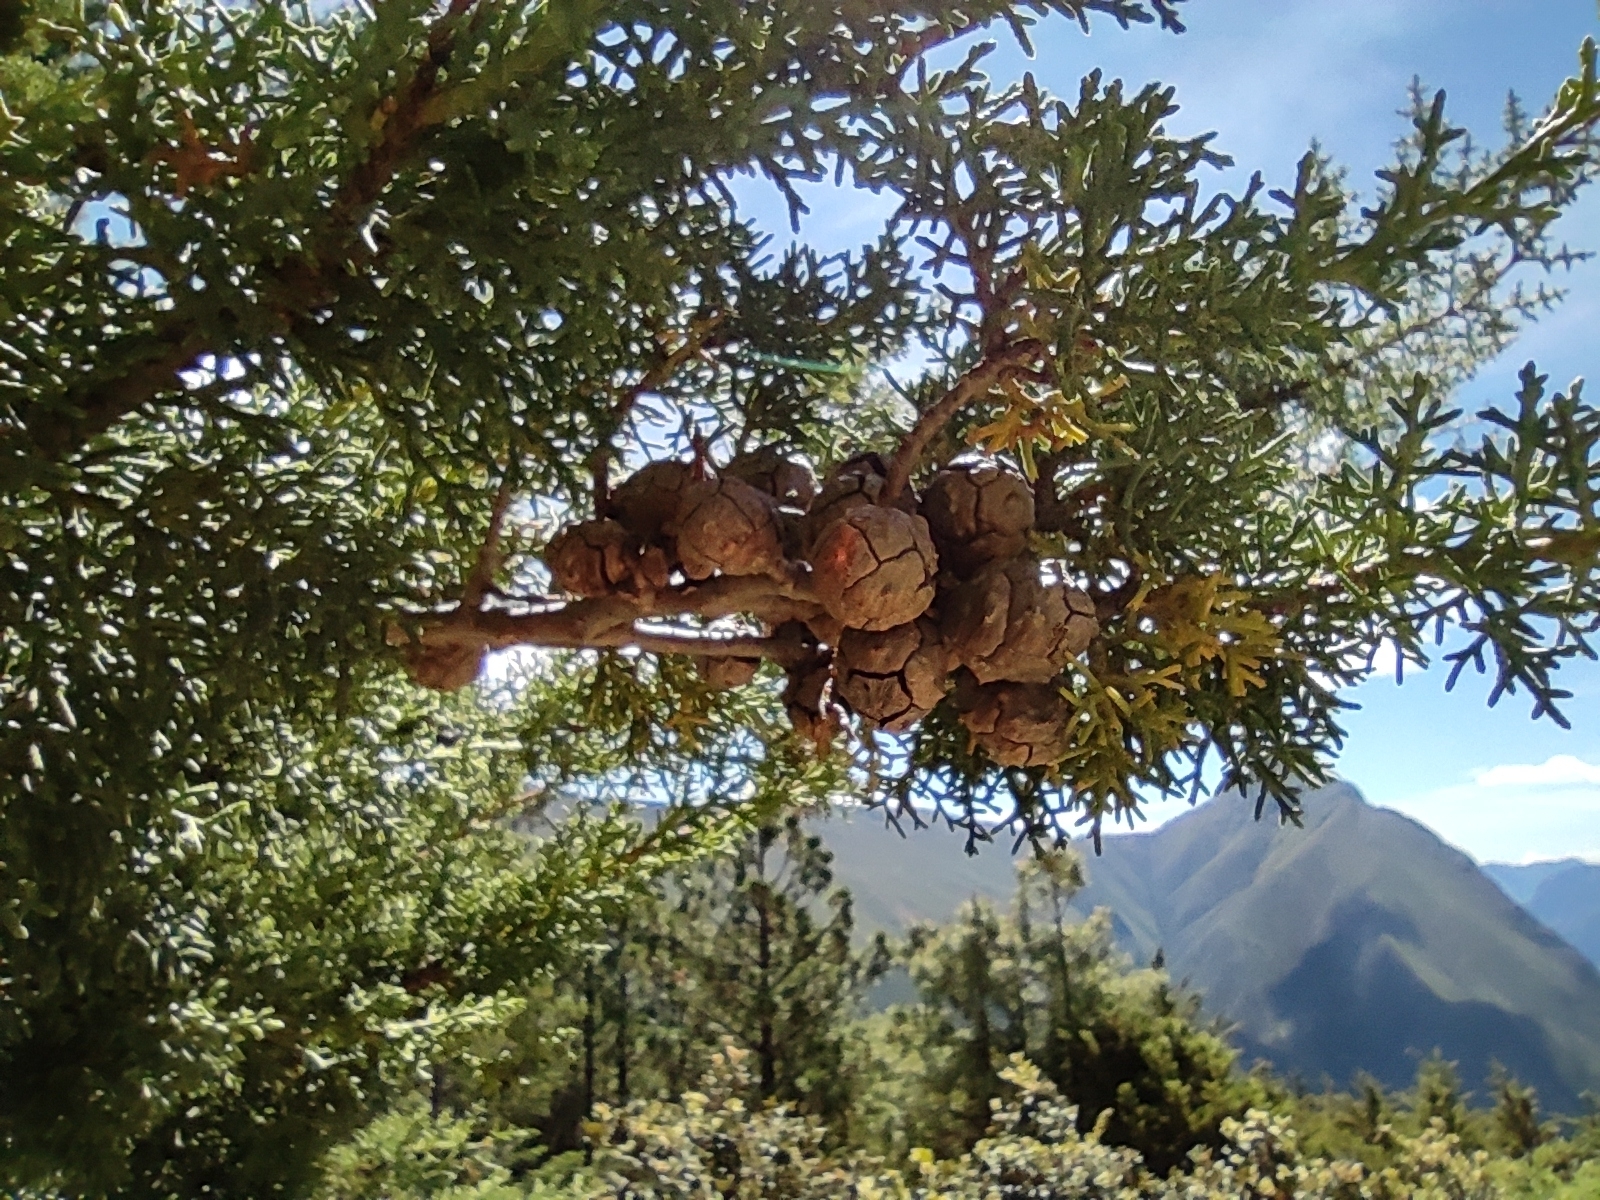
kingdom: Plantae
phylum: Tracheophyta
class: Pinopsida
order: Pinales
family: Cupressaceae
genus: Cupressus
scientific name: Cupressus arizonica
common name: Arizona cypress
